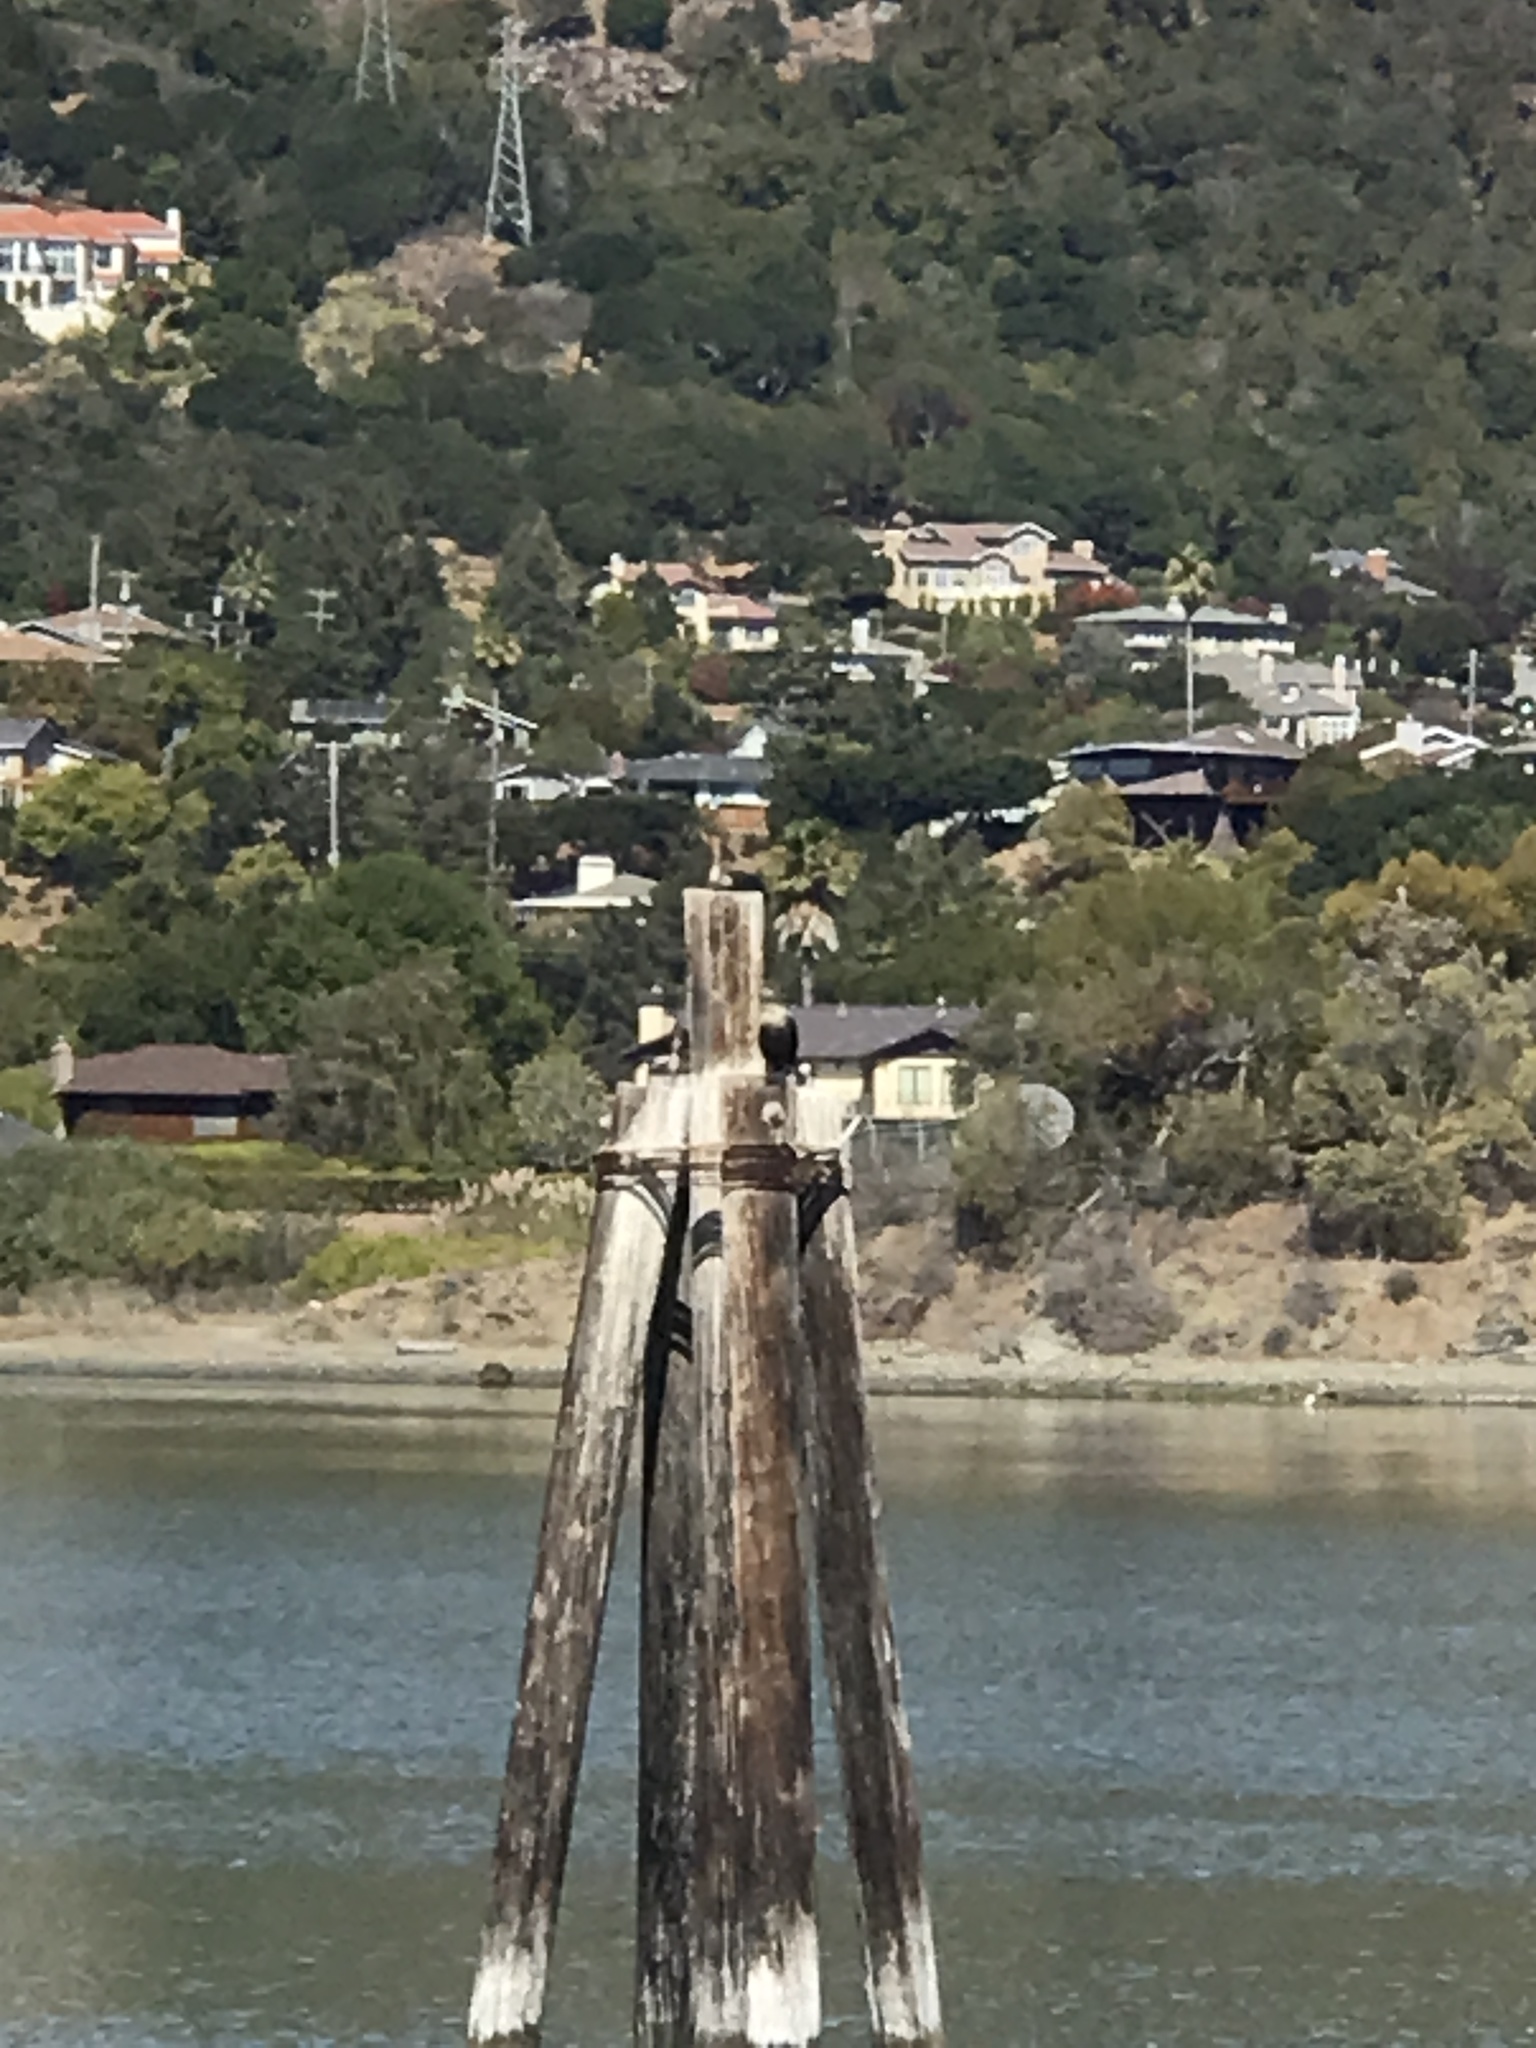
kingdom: Animalia
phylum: Chordata
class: Aves
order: Suliformes
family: Phalacrocoracidae
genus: Phalacrocorax
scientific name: Phalacrocorax auritus
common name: Double-crested cormorant
